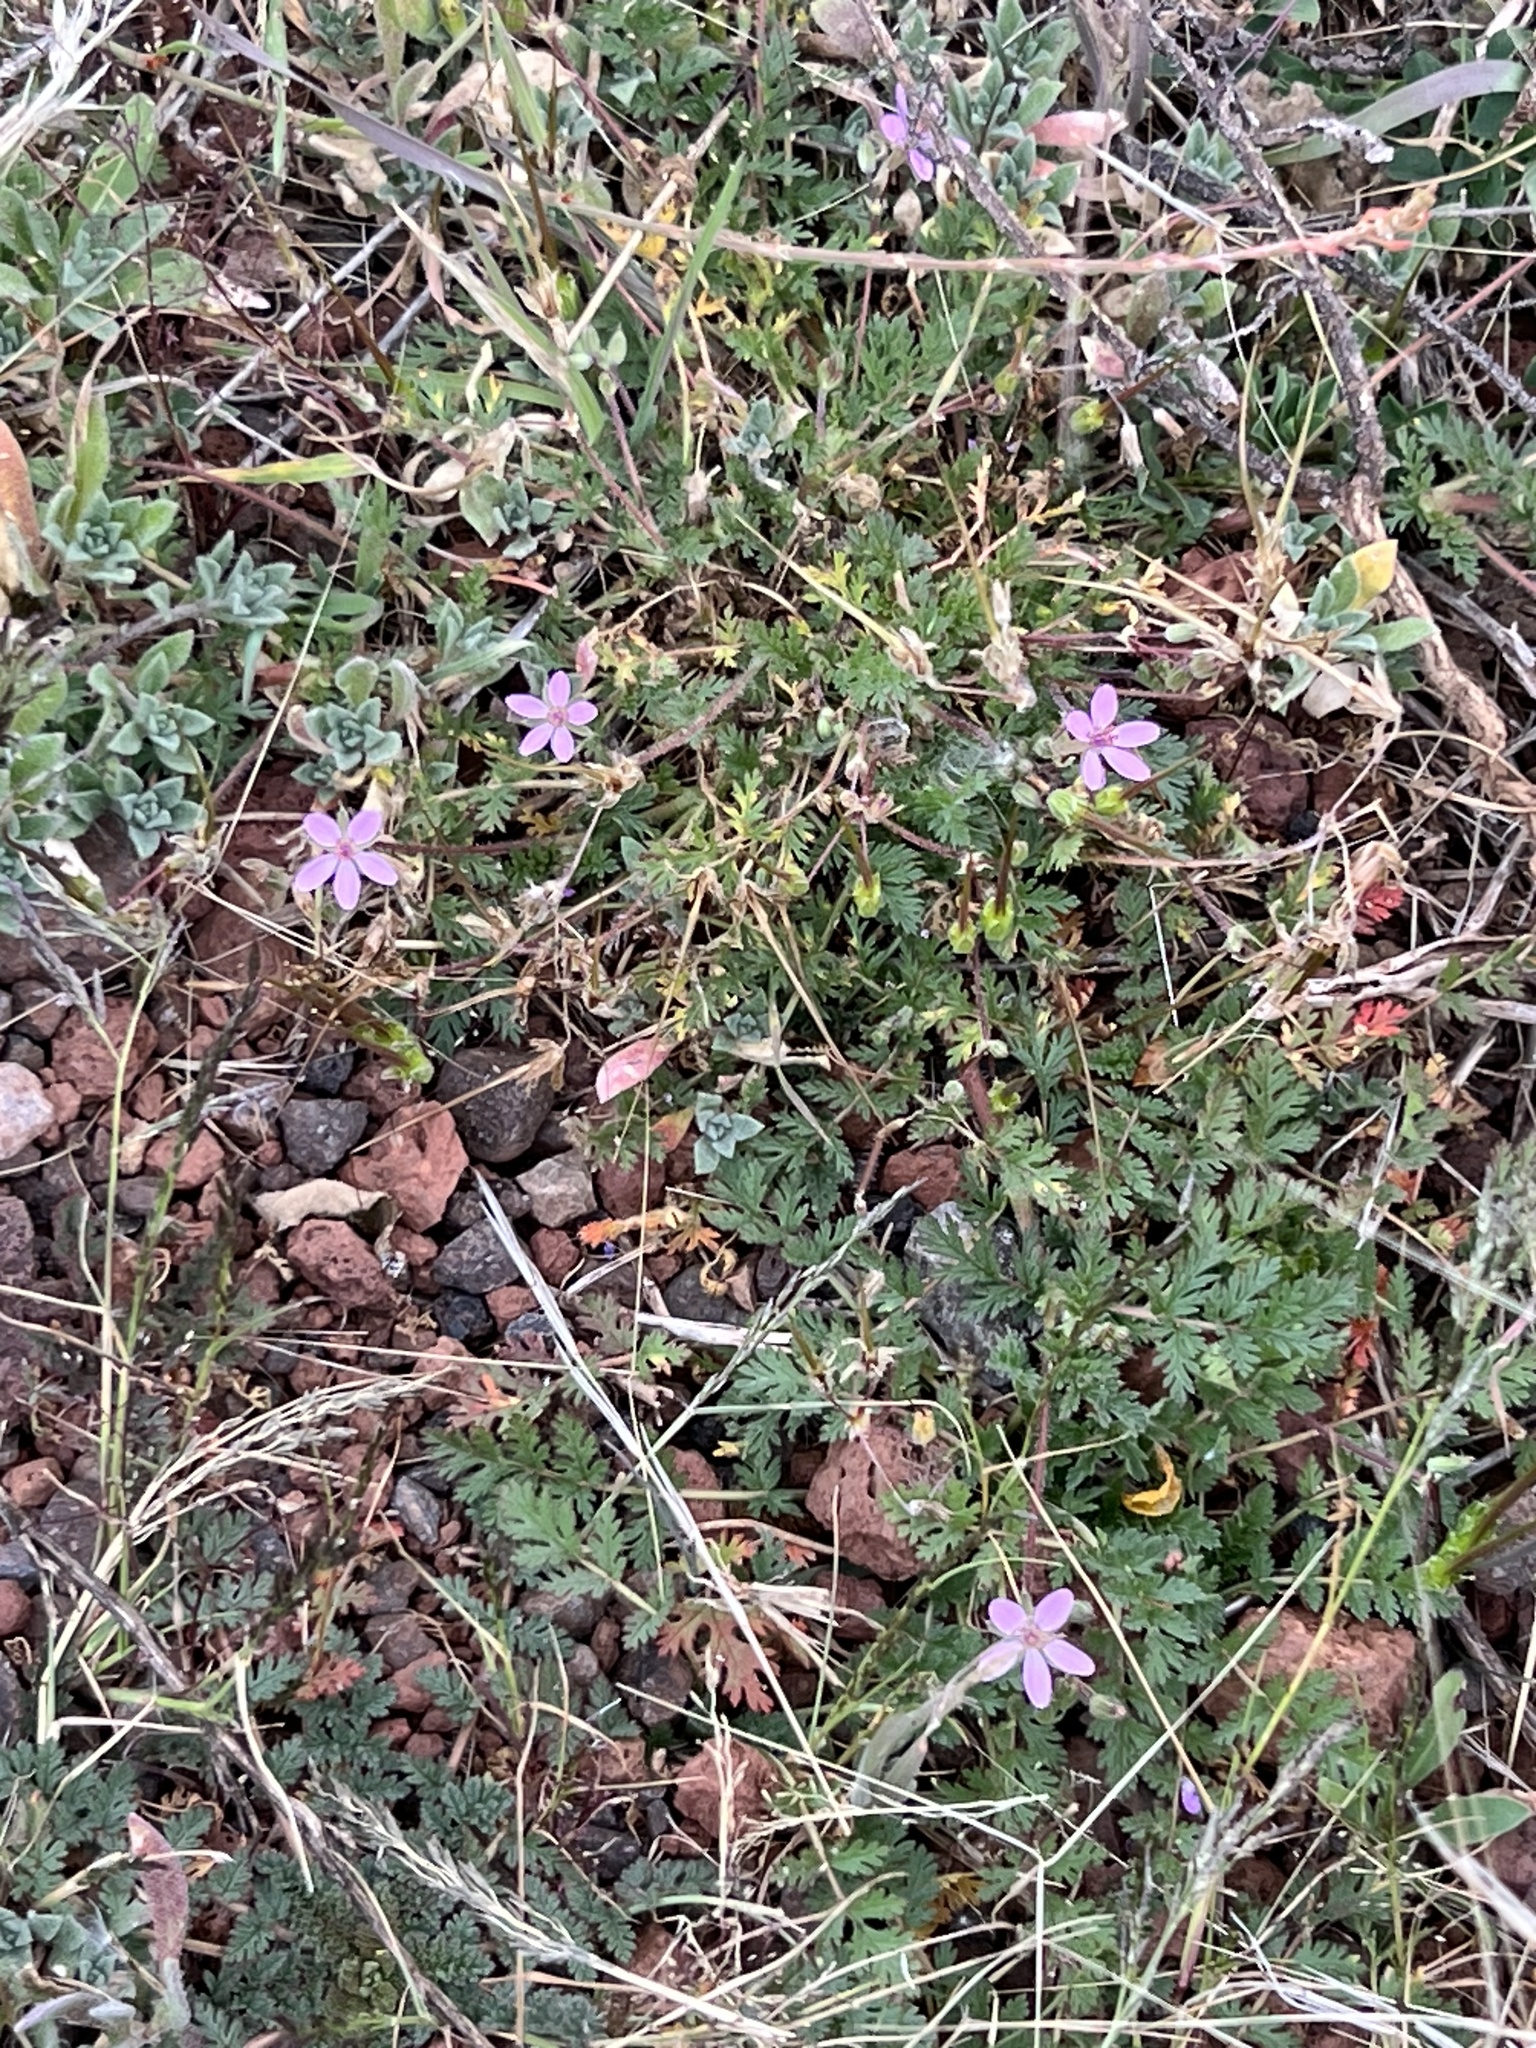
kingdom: Plantae
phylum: Tracheophyta
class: Magnoliopsida
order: Geraniales
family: Geraniaceae
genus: Erodium
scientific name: Erodium cicutarium
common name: Common stork's-bill
